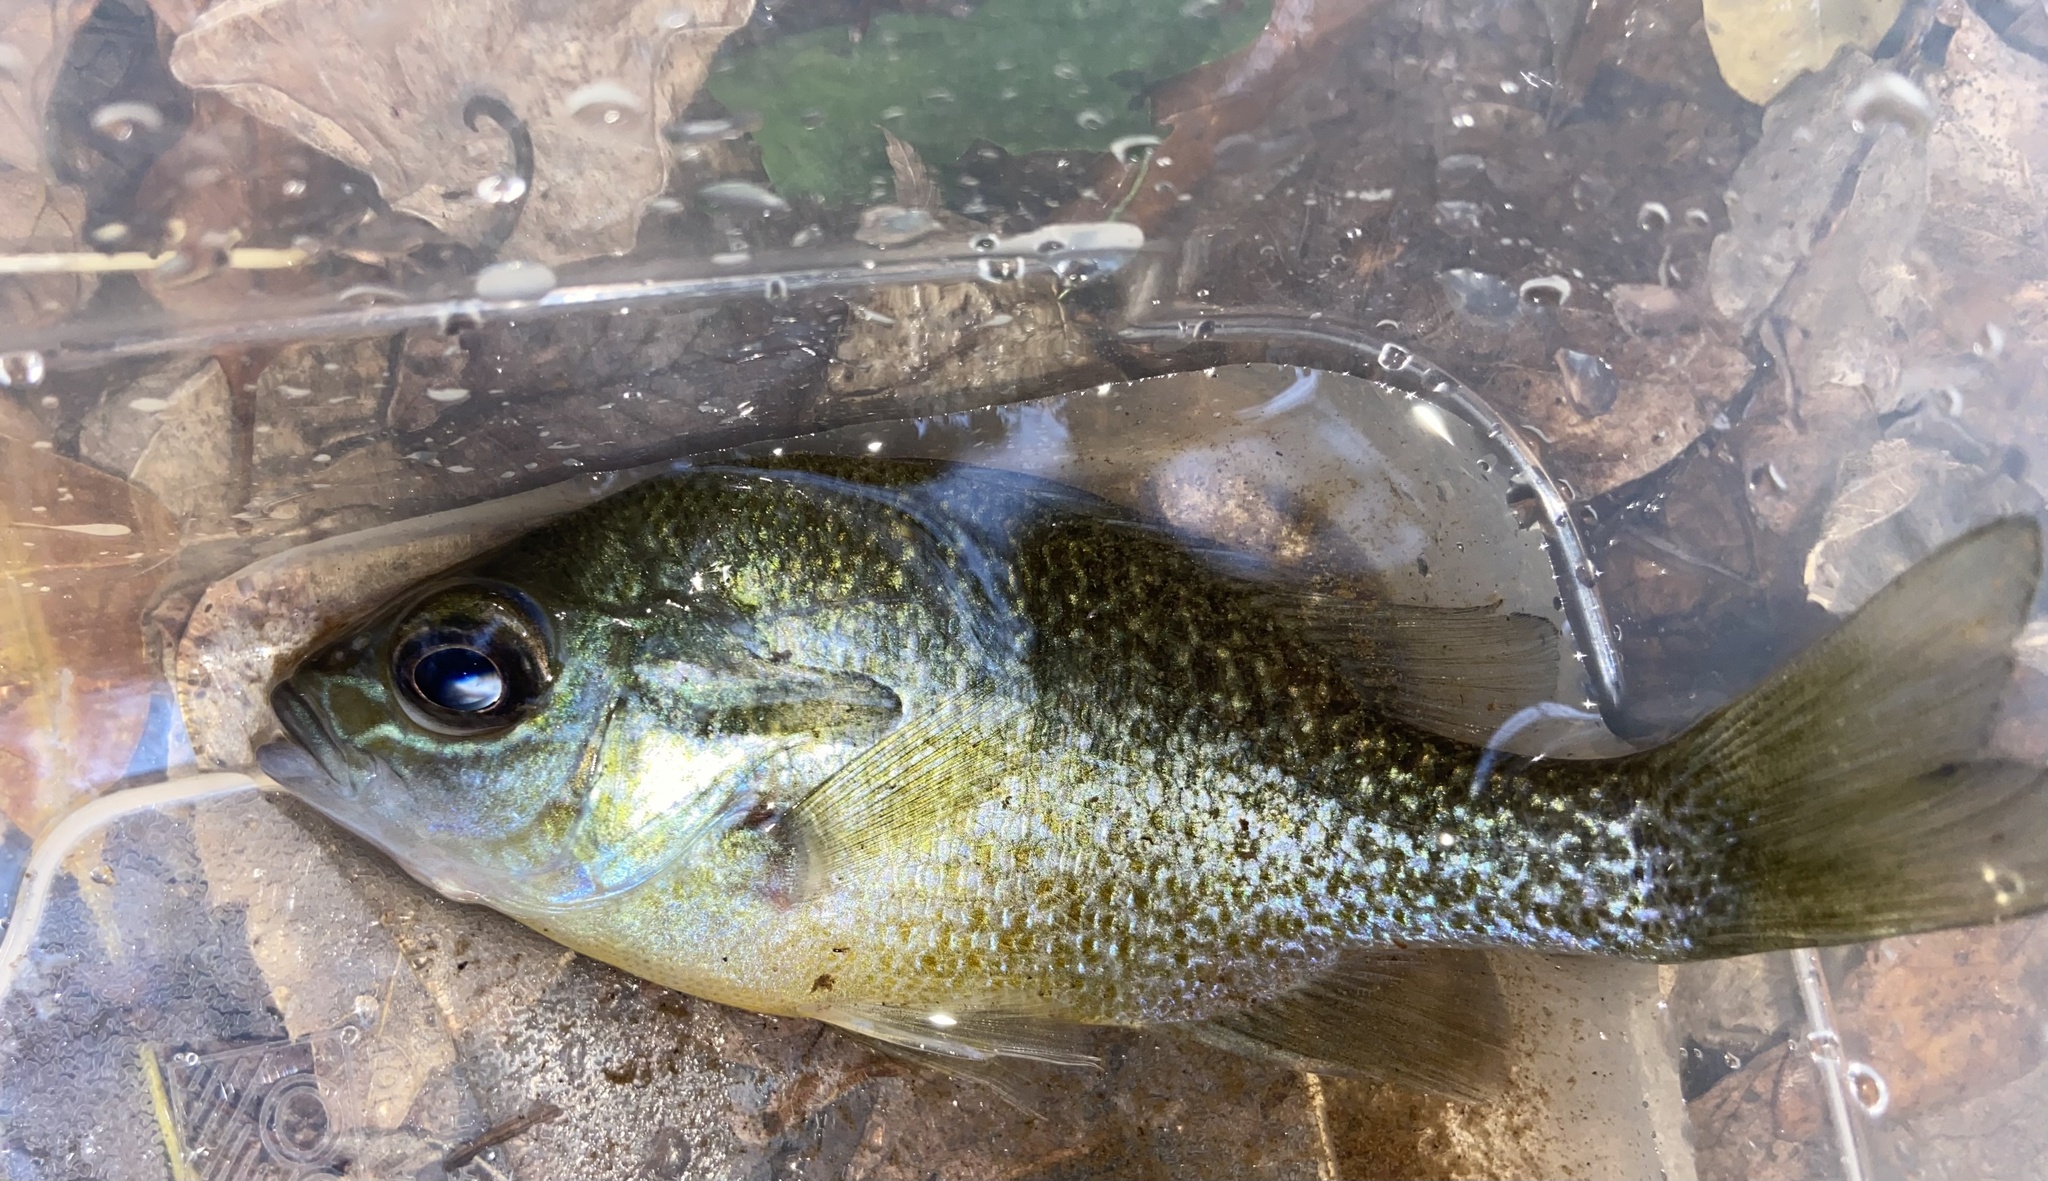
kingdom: Animalia
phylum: Chordata
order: Perciformes
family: Centrarchidae
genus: Lepomis
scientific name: Lepomis auritus
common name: Redbreast sunfish
